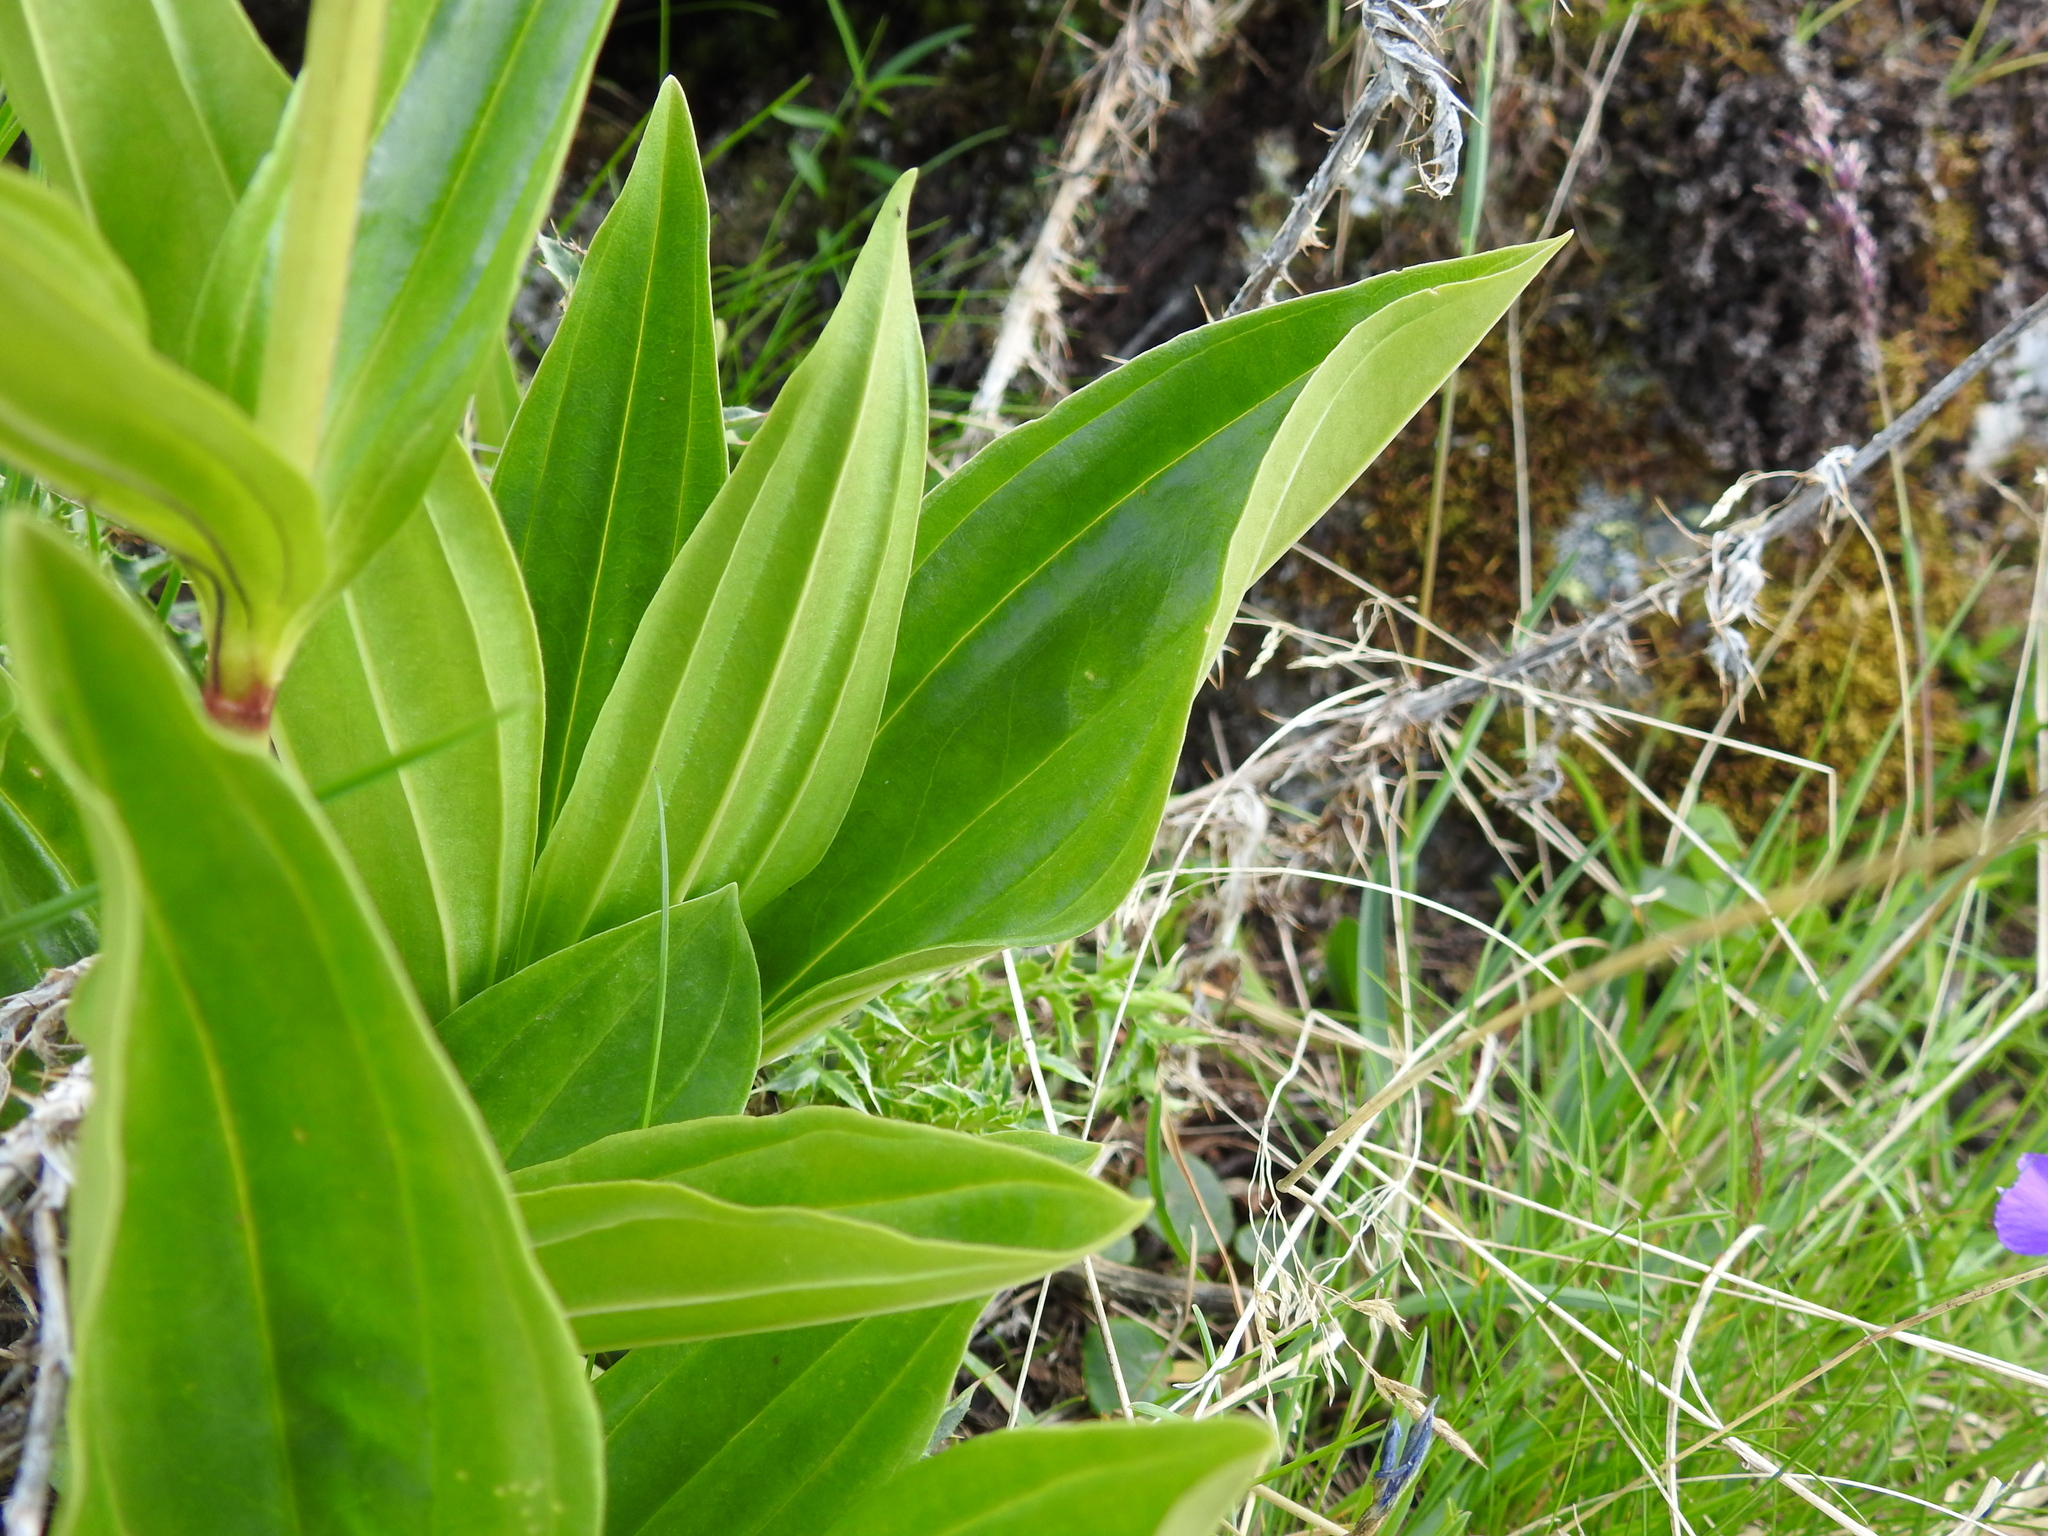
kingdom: Plantae
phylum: Tracheophyta
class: Magnoliopsida
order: Gentianales
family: Gentianaceae
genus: Gentiana
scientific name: Gentiana punctata
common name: Spotted gentian
